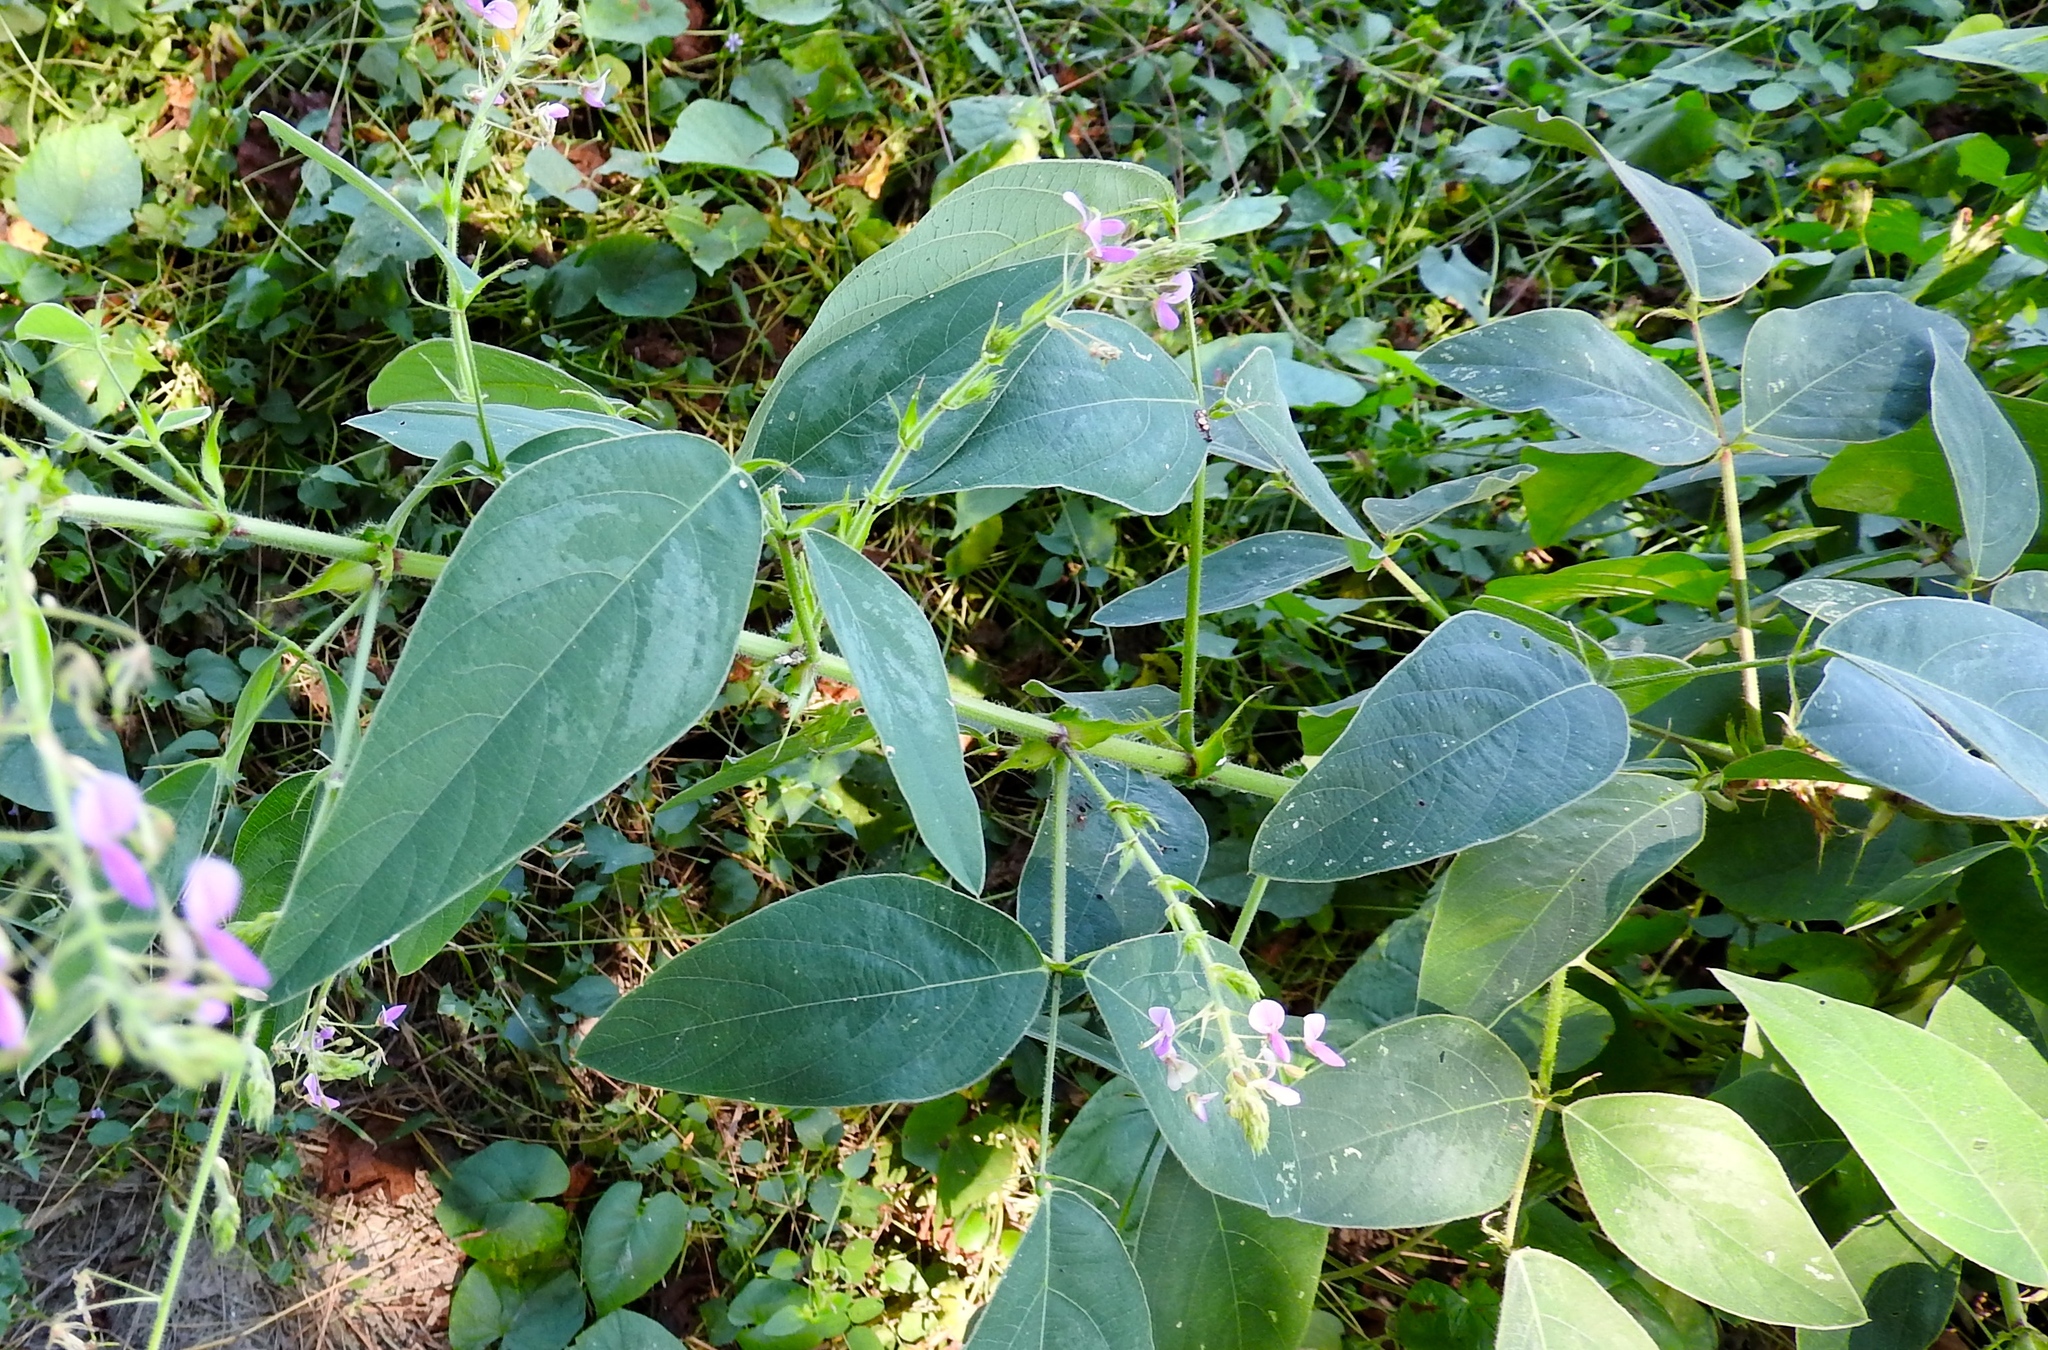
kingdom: Plantae
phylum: Tracheophyta
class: Magnoliopsida
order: Fabales
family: Fabaceae
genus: Desmodium
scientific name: Desmodium tortuosum
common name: Dixie ticktrefoil
